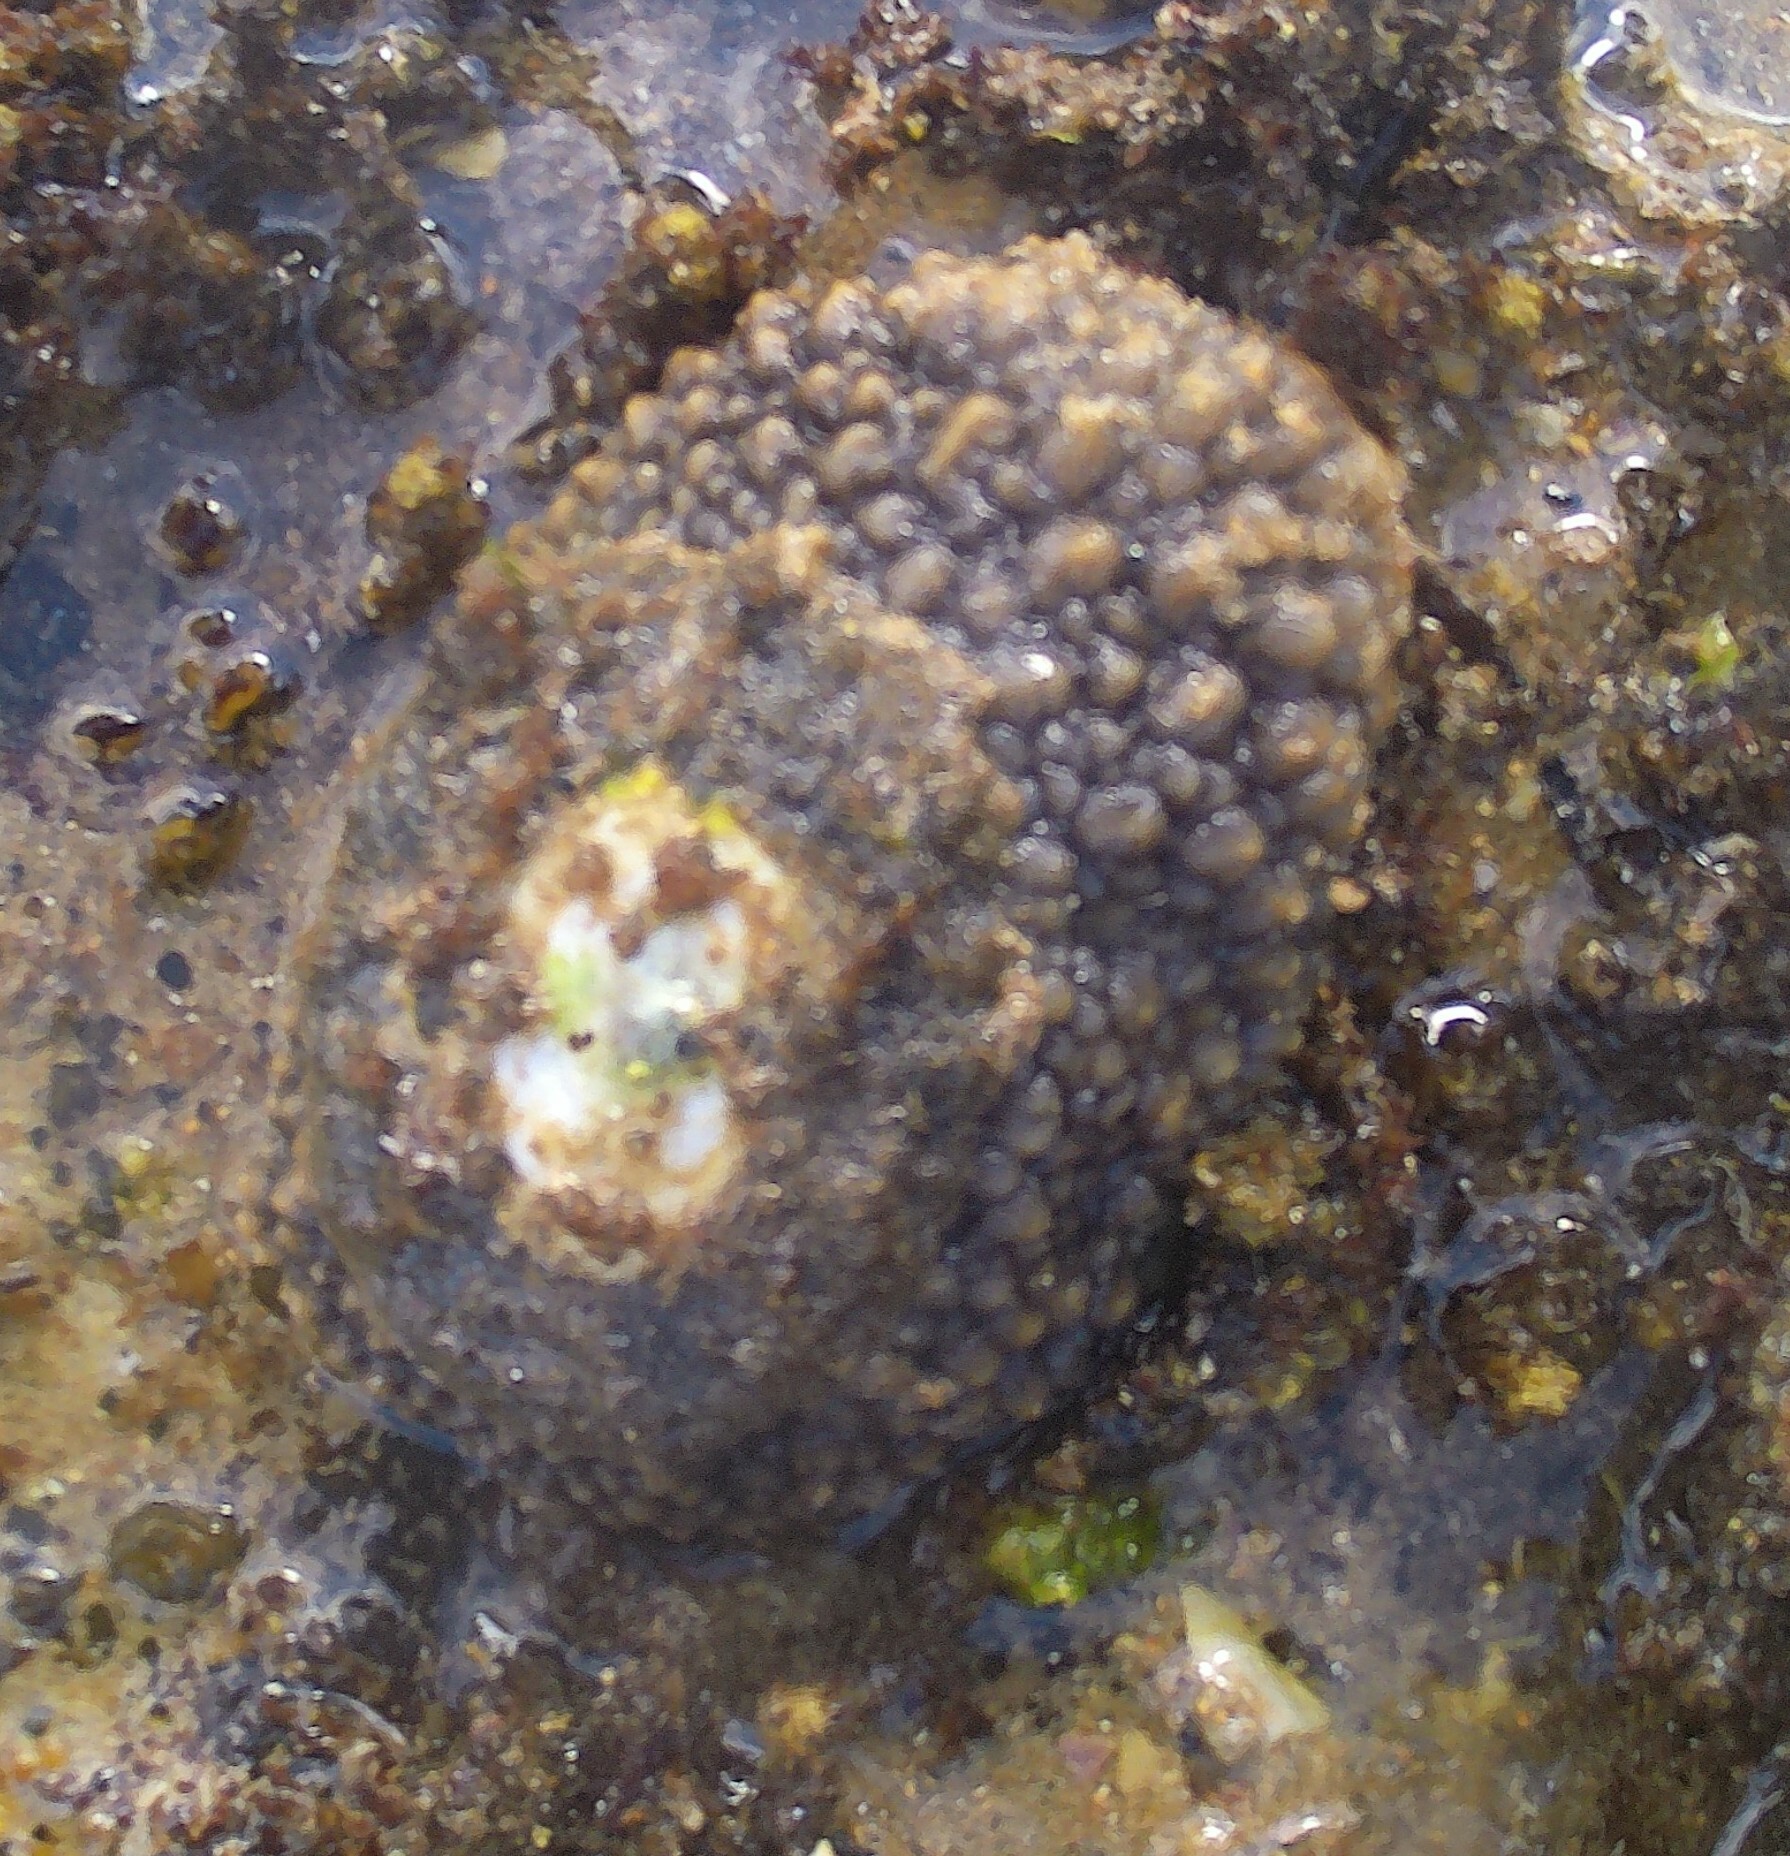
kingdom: Animalia
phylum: Mollusca
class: Gastropoda
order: Umbraculida
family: Umbraculidae
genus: Umbraculum
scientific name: Umbraculum umbraculum
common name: Atlantic umbrella slug
